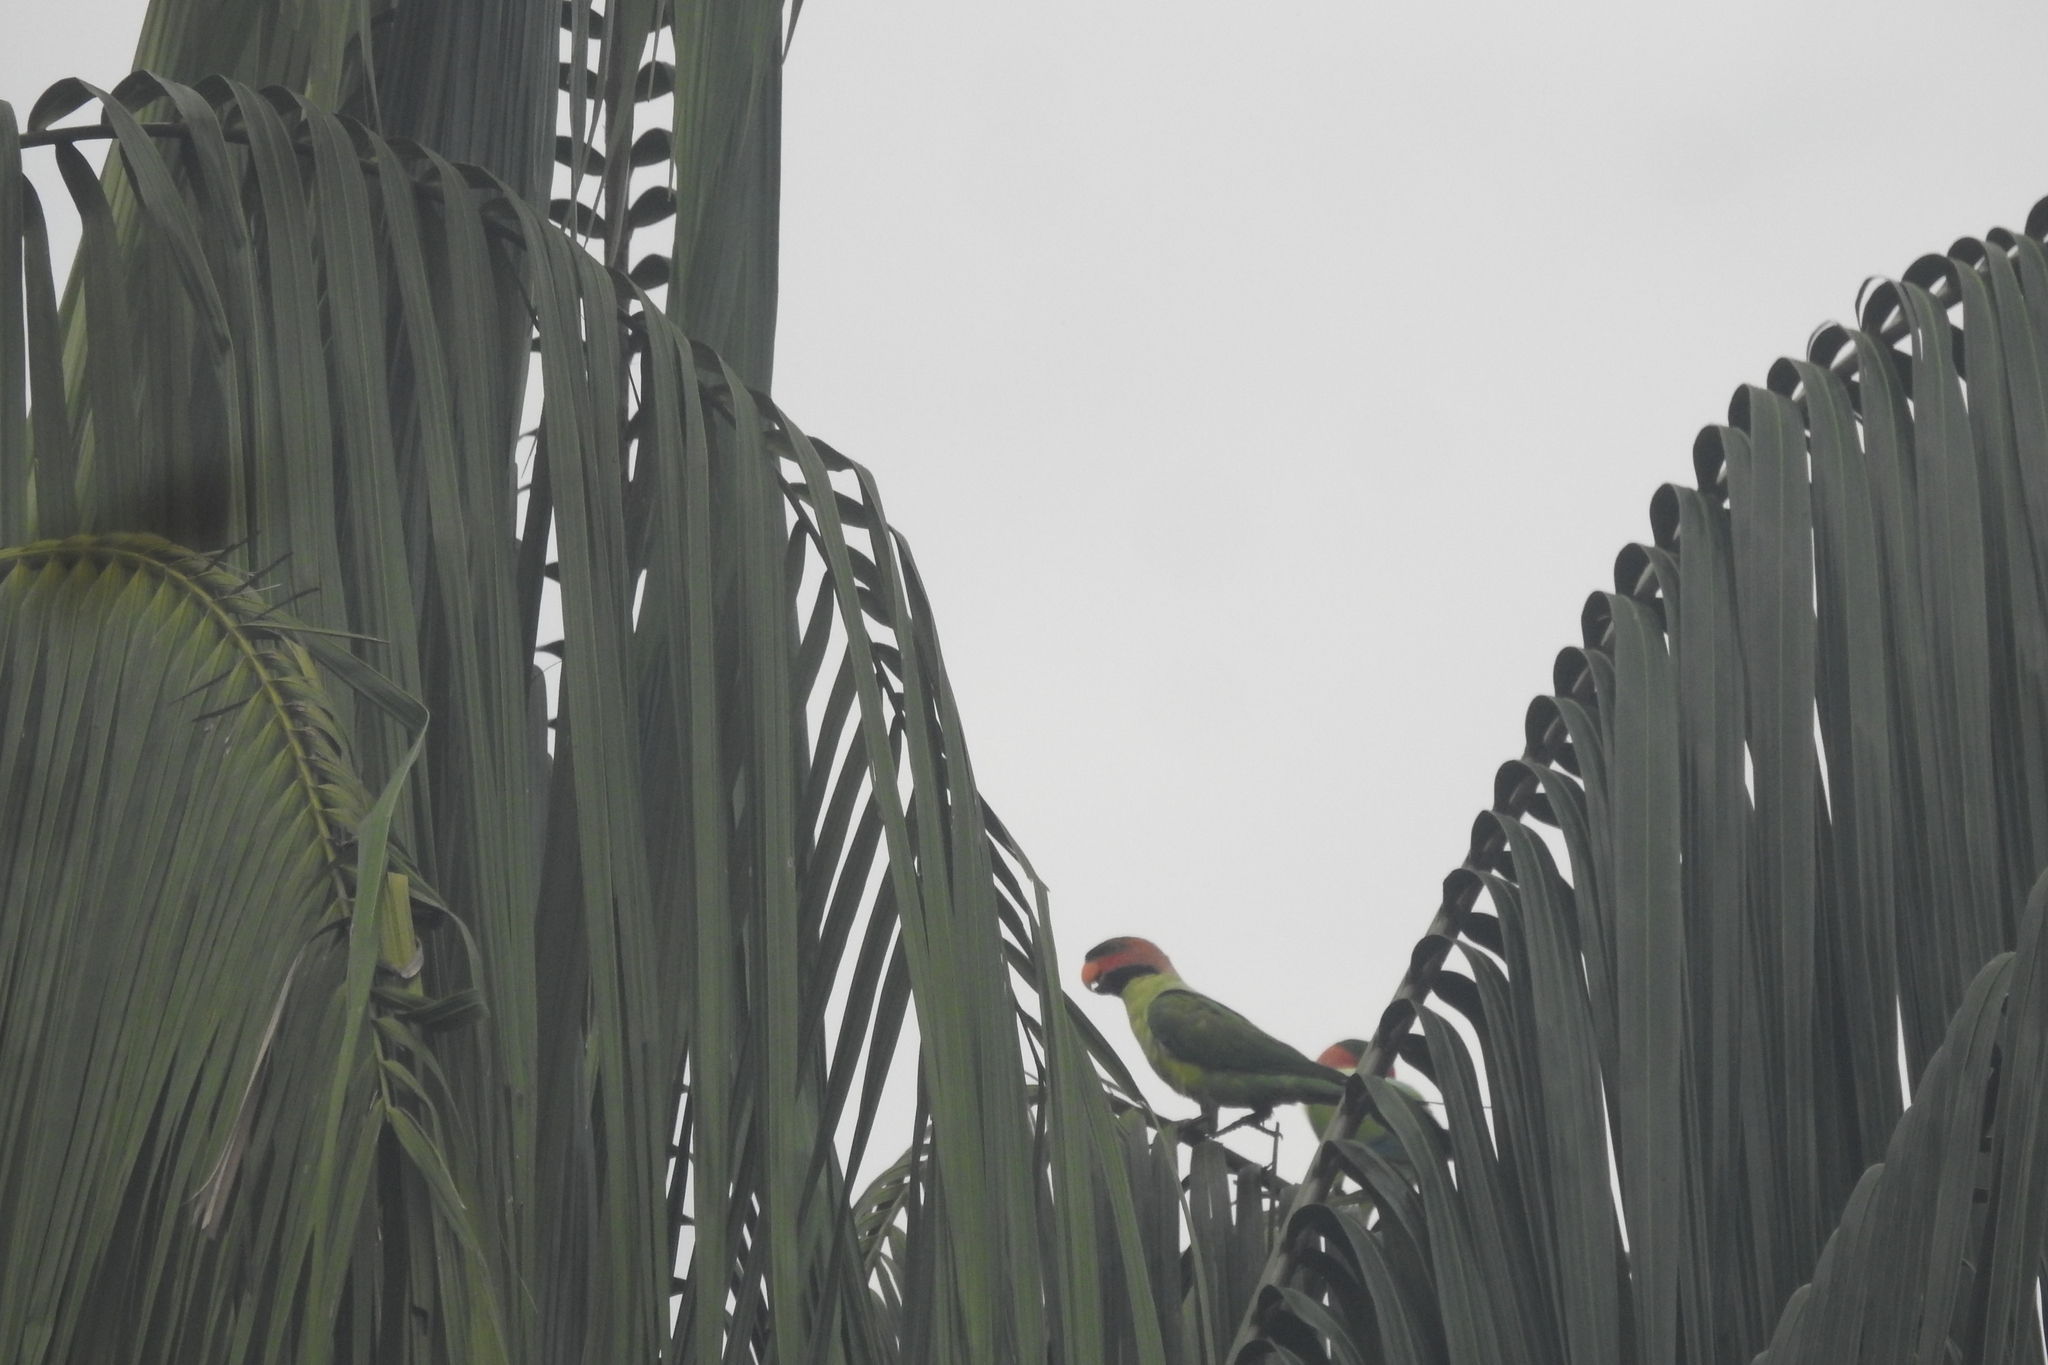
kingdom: Animalia
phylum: Chordata
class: Aves
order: Psittaciformes
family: Psittacidae
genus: Psittacula
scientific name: Psittacula longicauda
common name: Long-tailed parakeet
